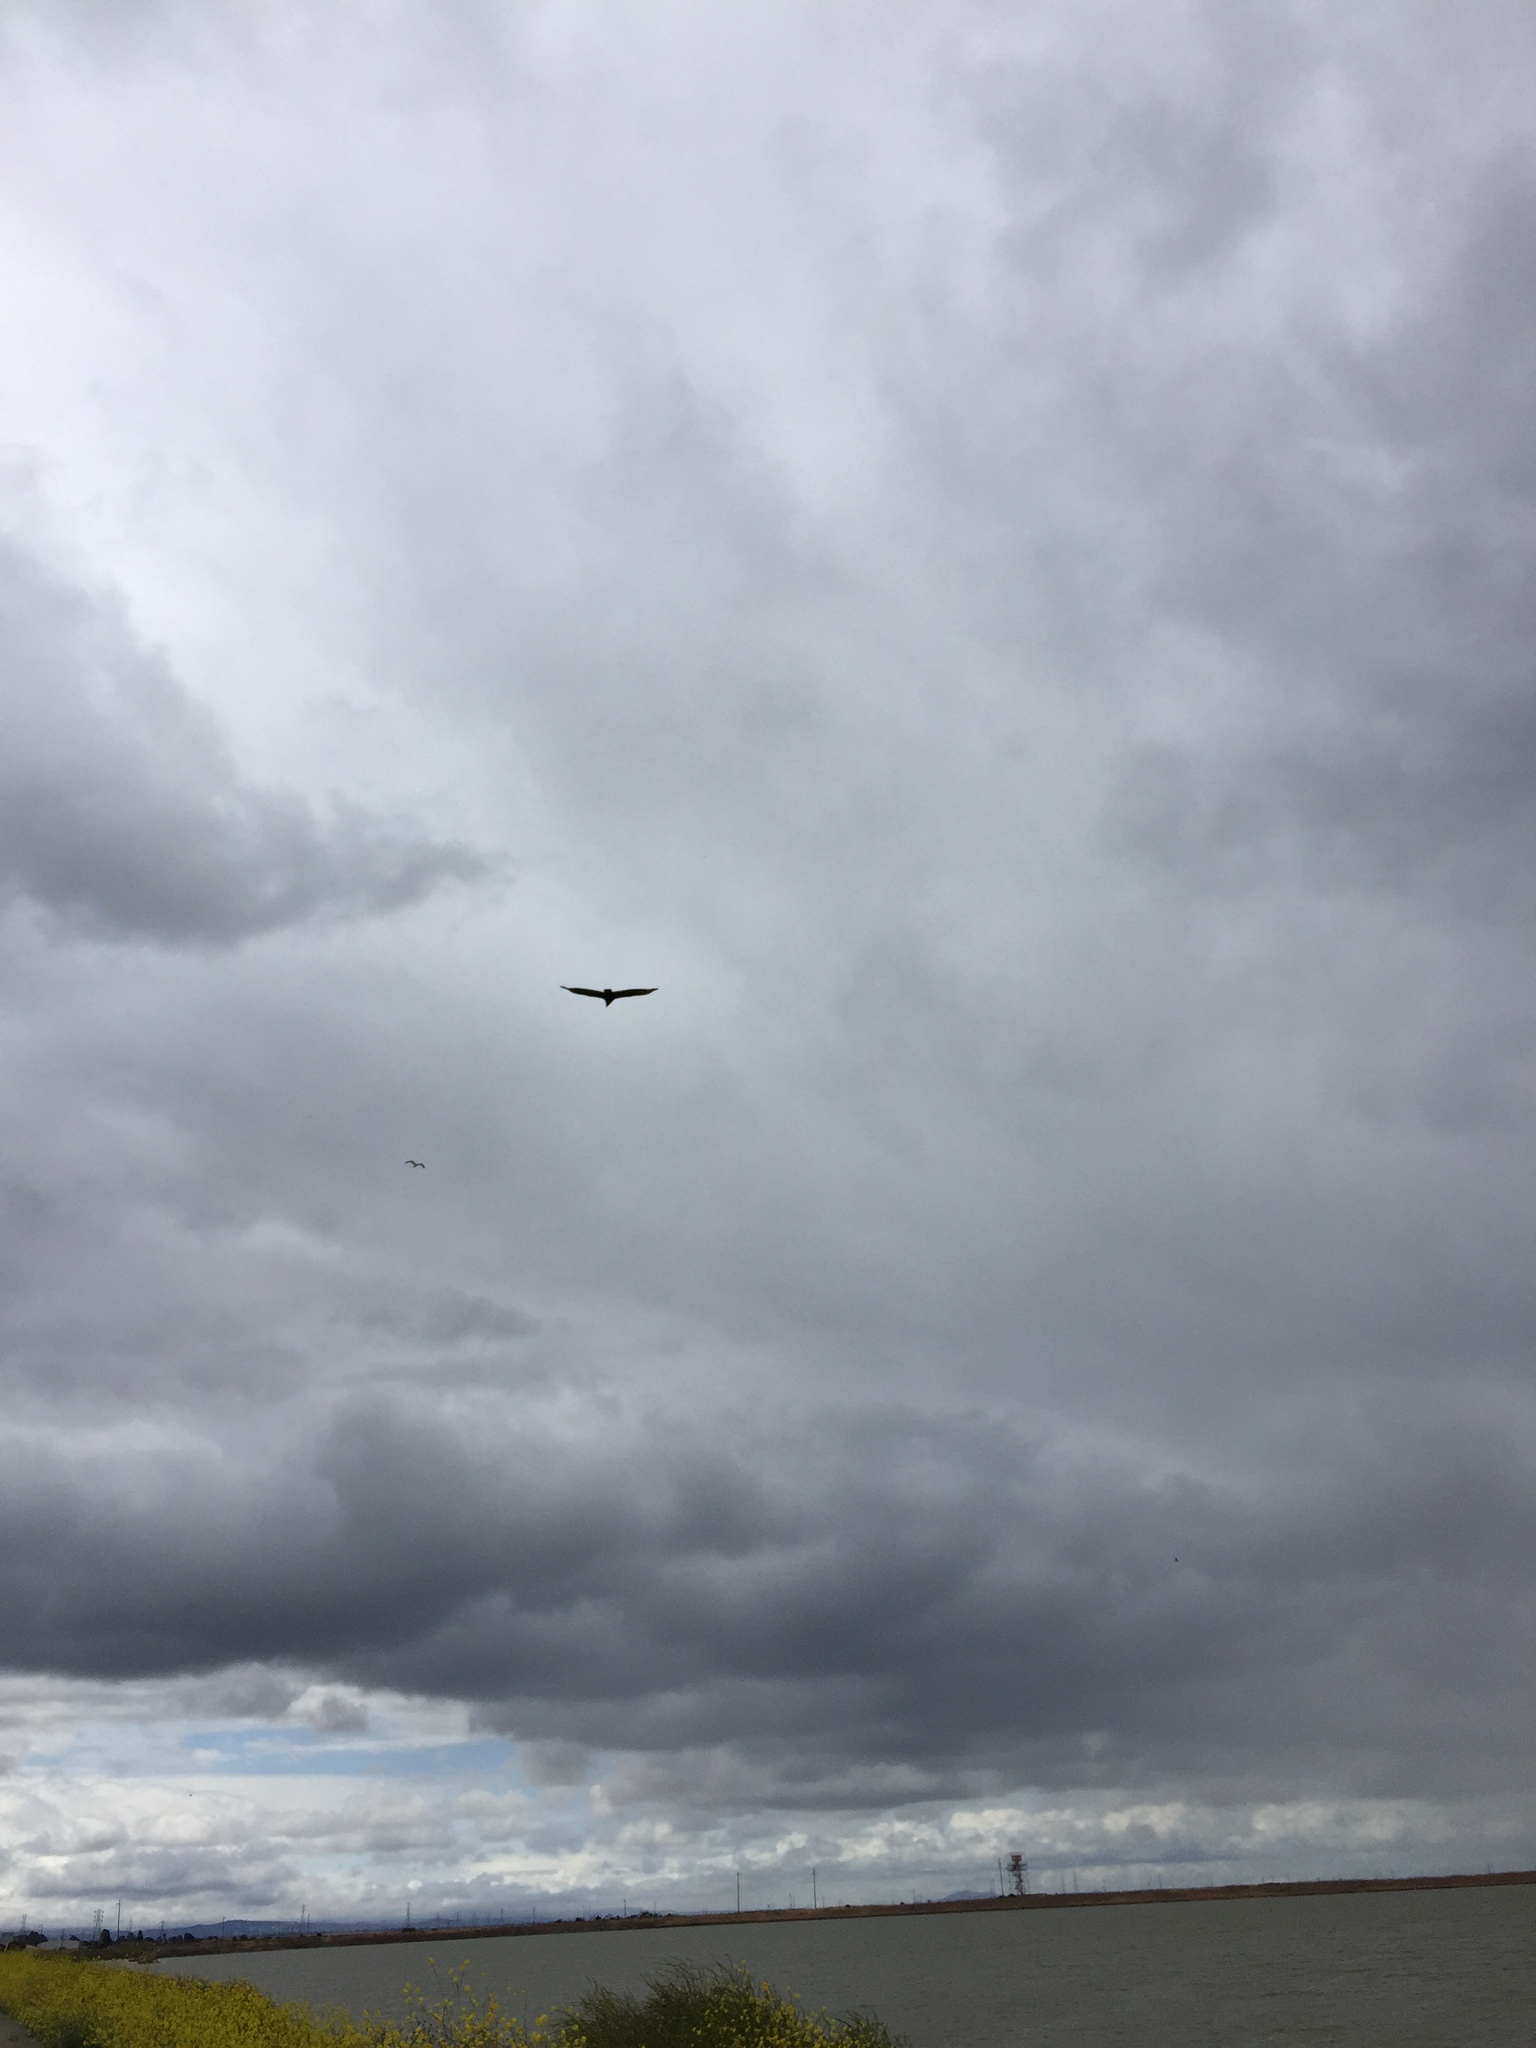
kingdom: Animalia
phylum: Chordata
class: Aves
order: Accipitriformes
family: Cathartidae
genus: Cathartes
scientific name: Cathartes aura
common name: Turkey vulture
